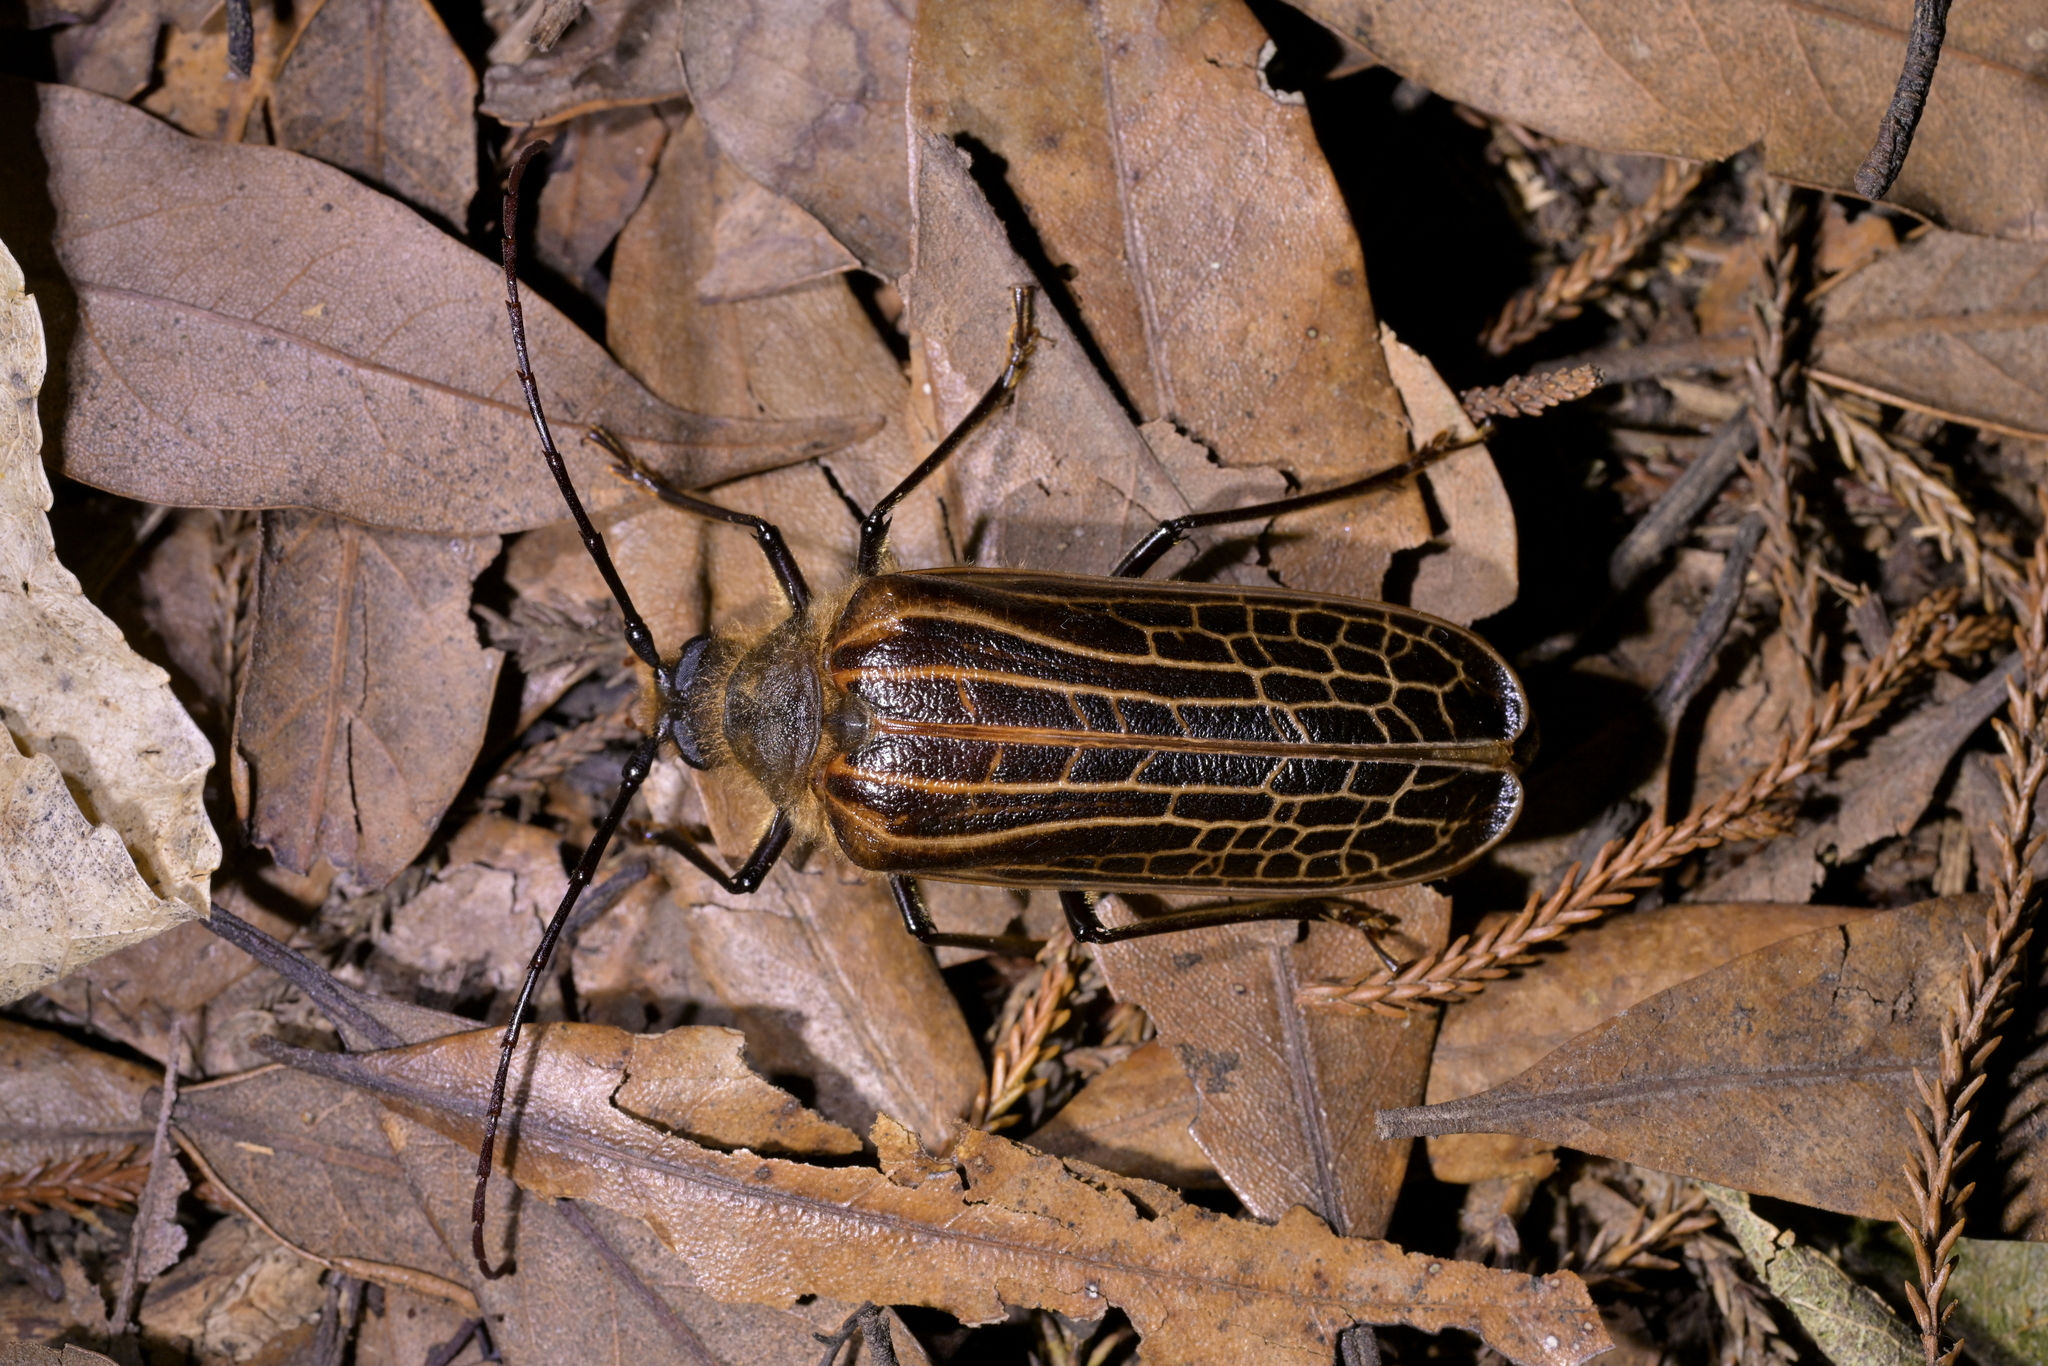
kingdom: Animalia
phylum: Arthropoda
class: Insecta
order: Coleoptera
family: Cerambycidae
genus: Prionoplus
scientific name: Prionoplus reticularis
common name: Huhu beetle
